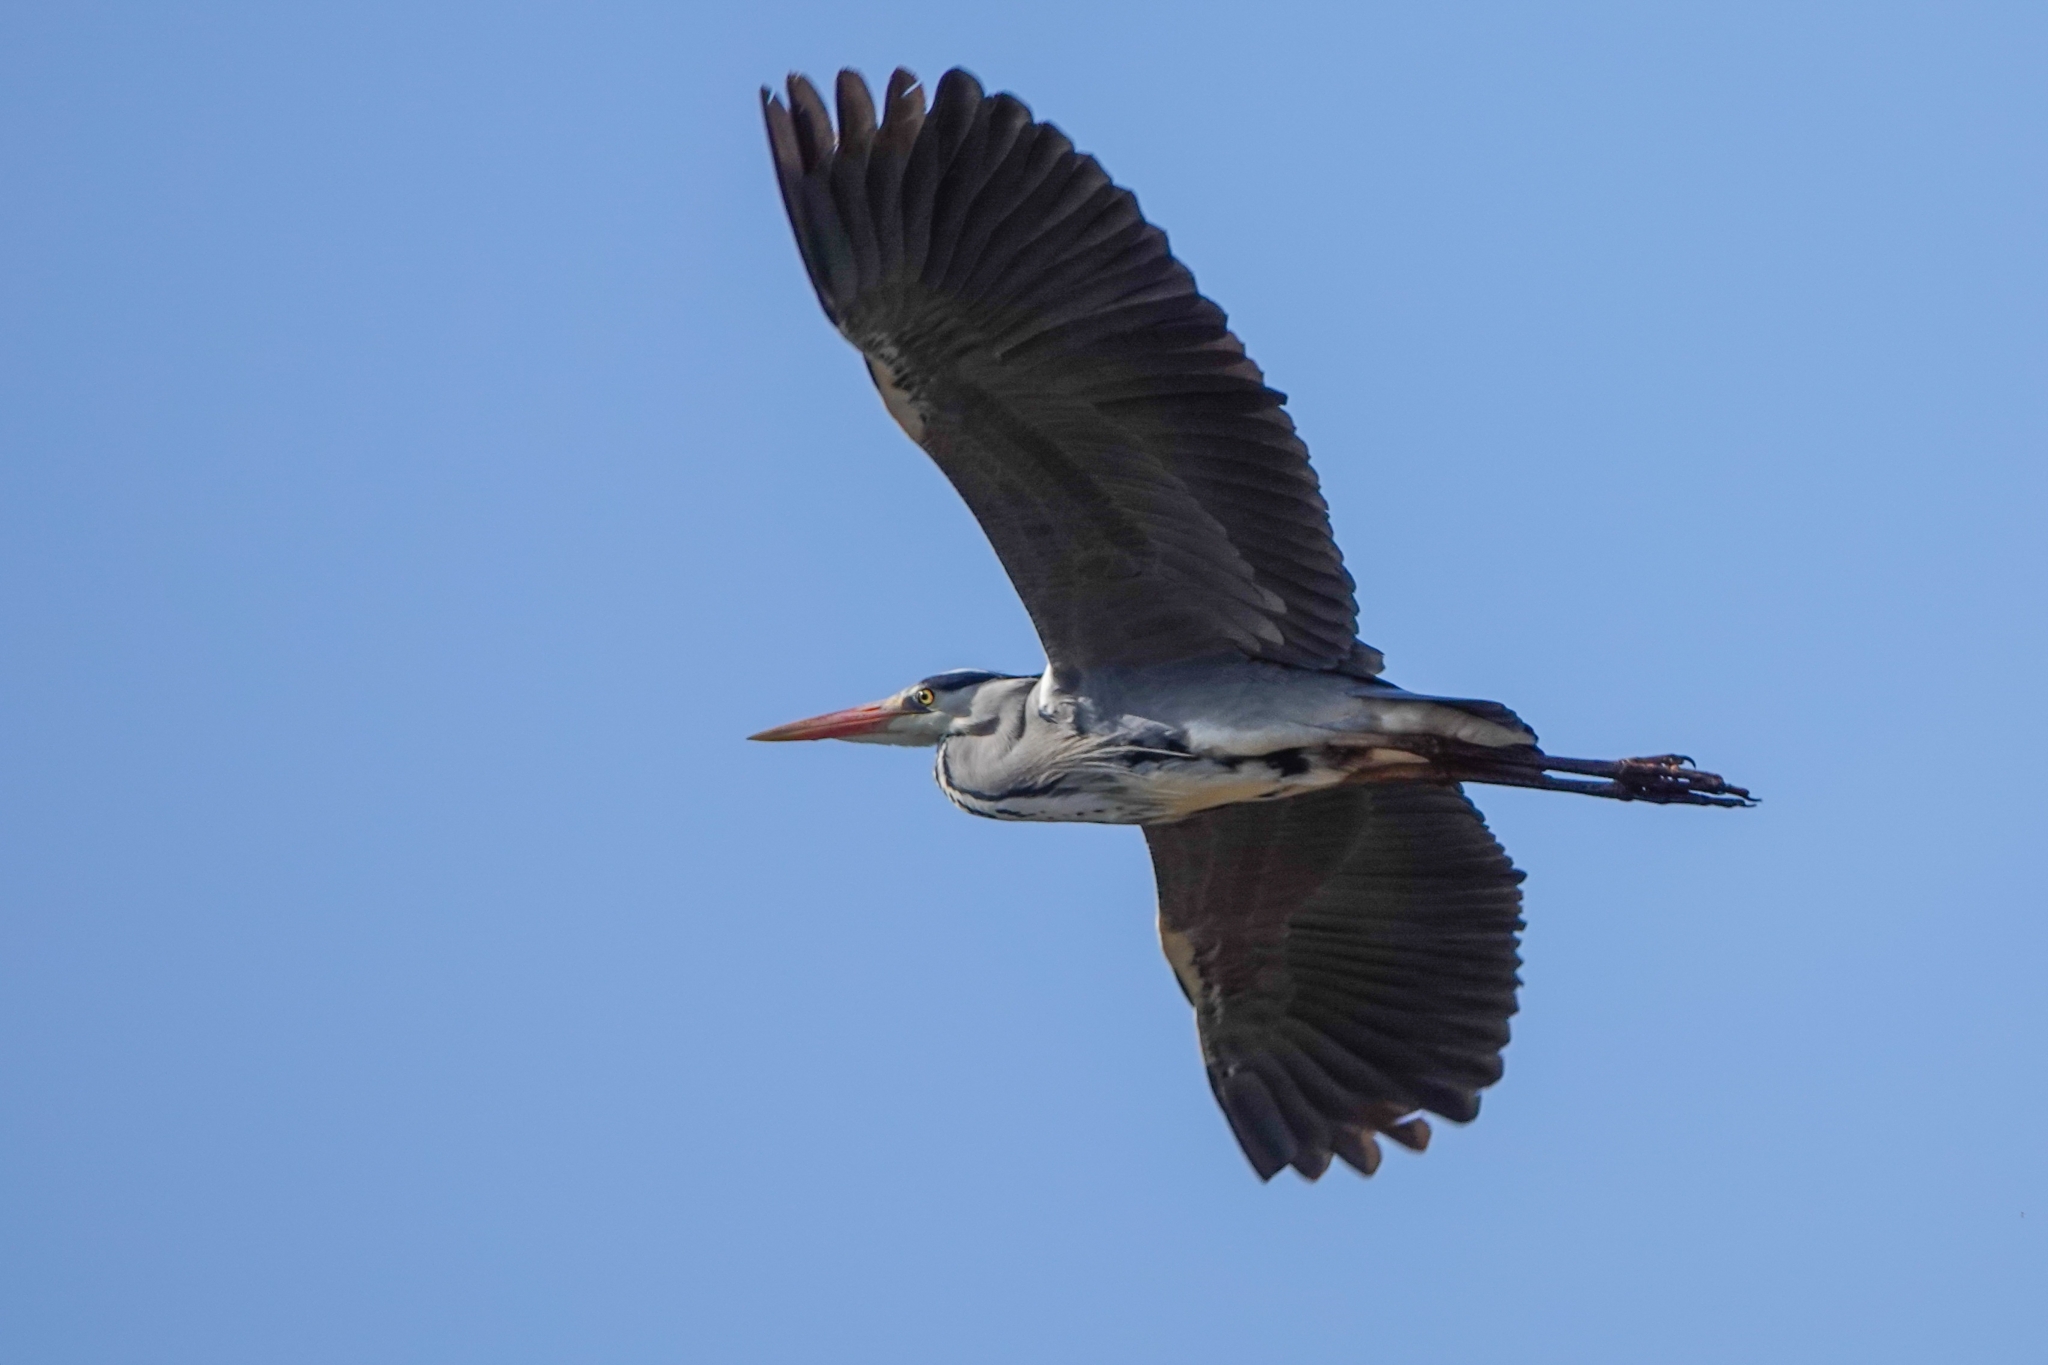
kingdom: Animalia
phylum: Chordata
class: Aves
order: Pelecaniformes
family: Ardeidae
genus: Ardea
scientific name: Ardea cinerea
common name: Grey heron
